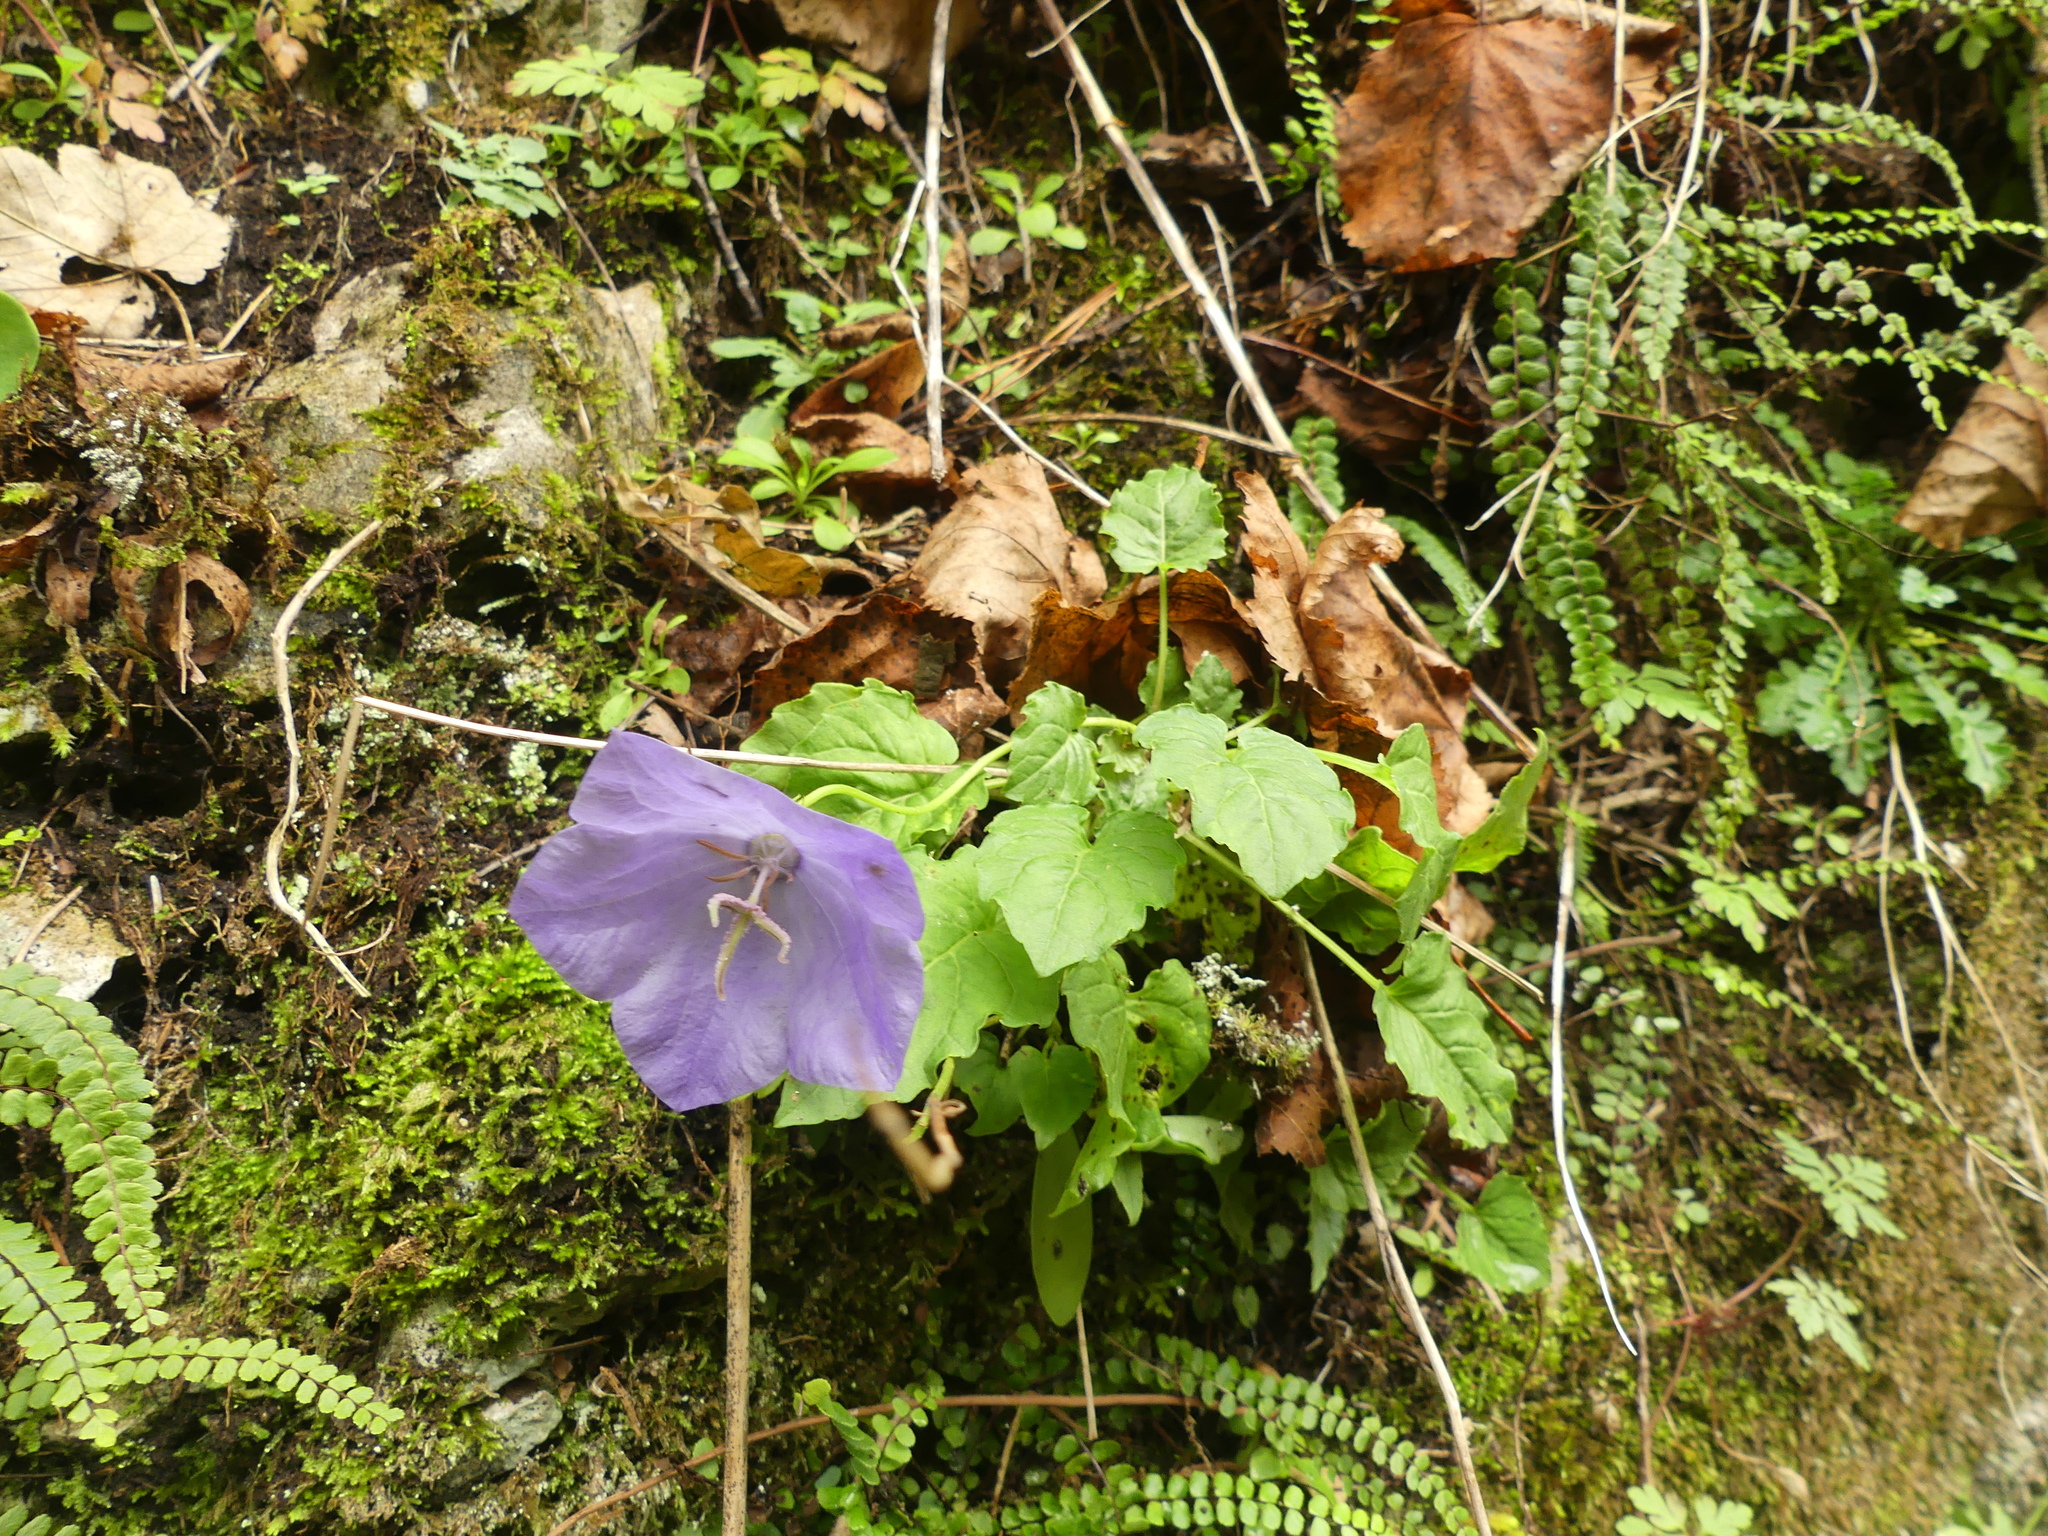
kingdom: Plantae
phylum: Tracheophyta
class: Magnoliopsida
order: Asterales
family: Campanulaceae
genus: Campanula
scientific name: Campanula carpatica
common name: Tussock bellflower
